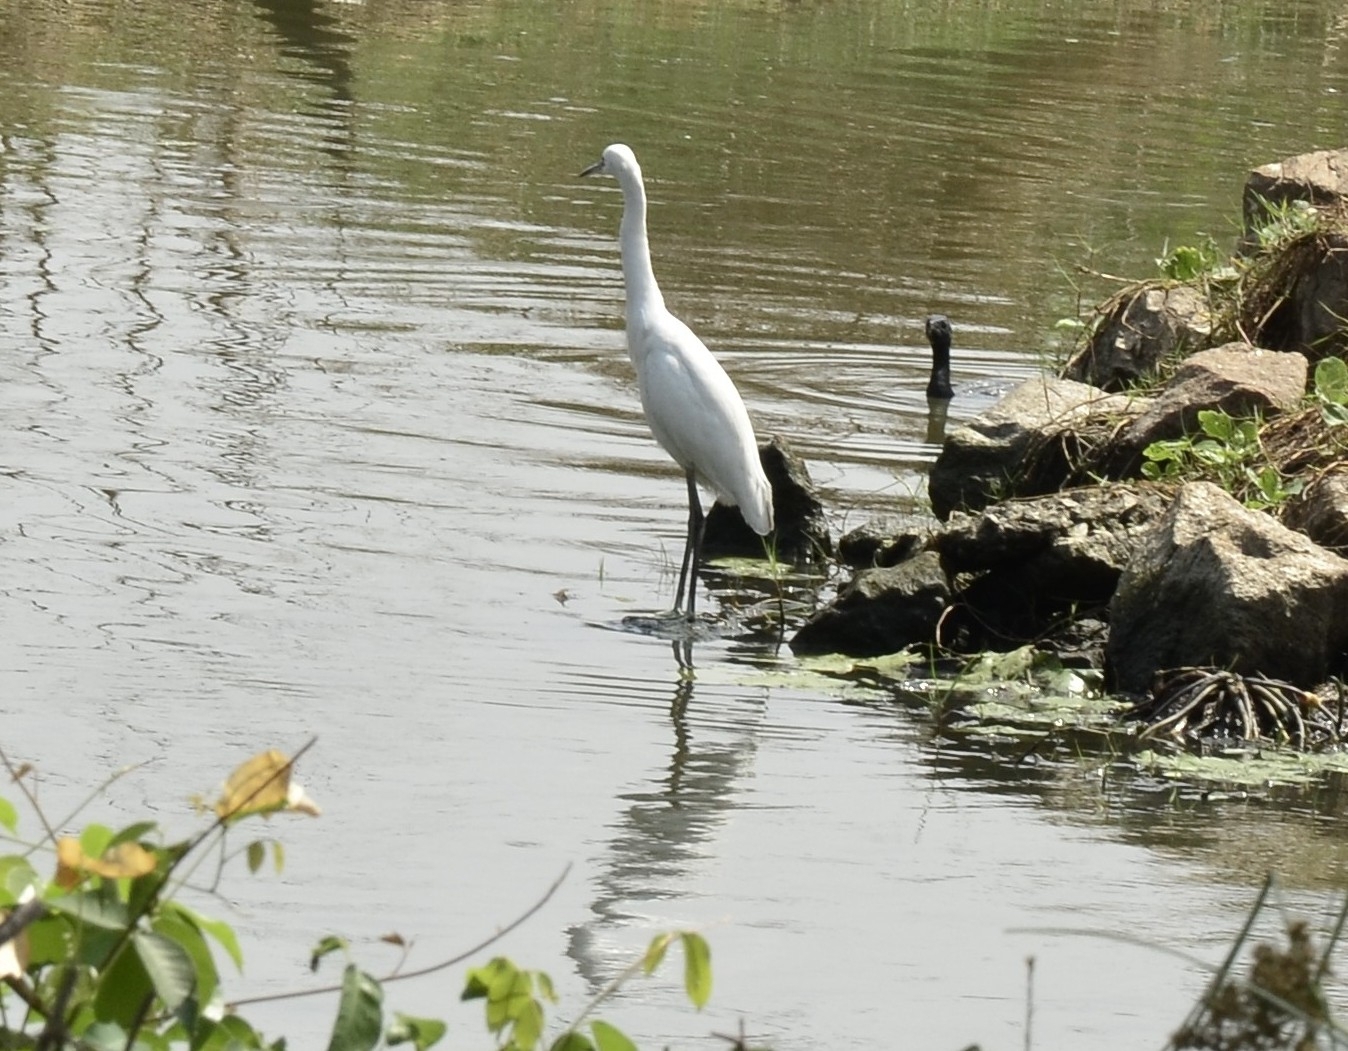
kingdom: Animalia
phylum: Chordata
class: Aves
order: Pelecaniformes
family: Ardeidae
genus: Egretta
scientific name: Egretta garzetta
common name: Little egret
